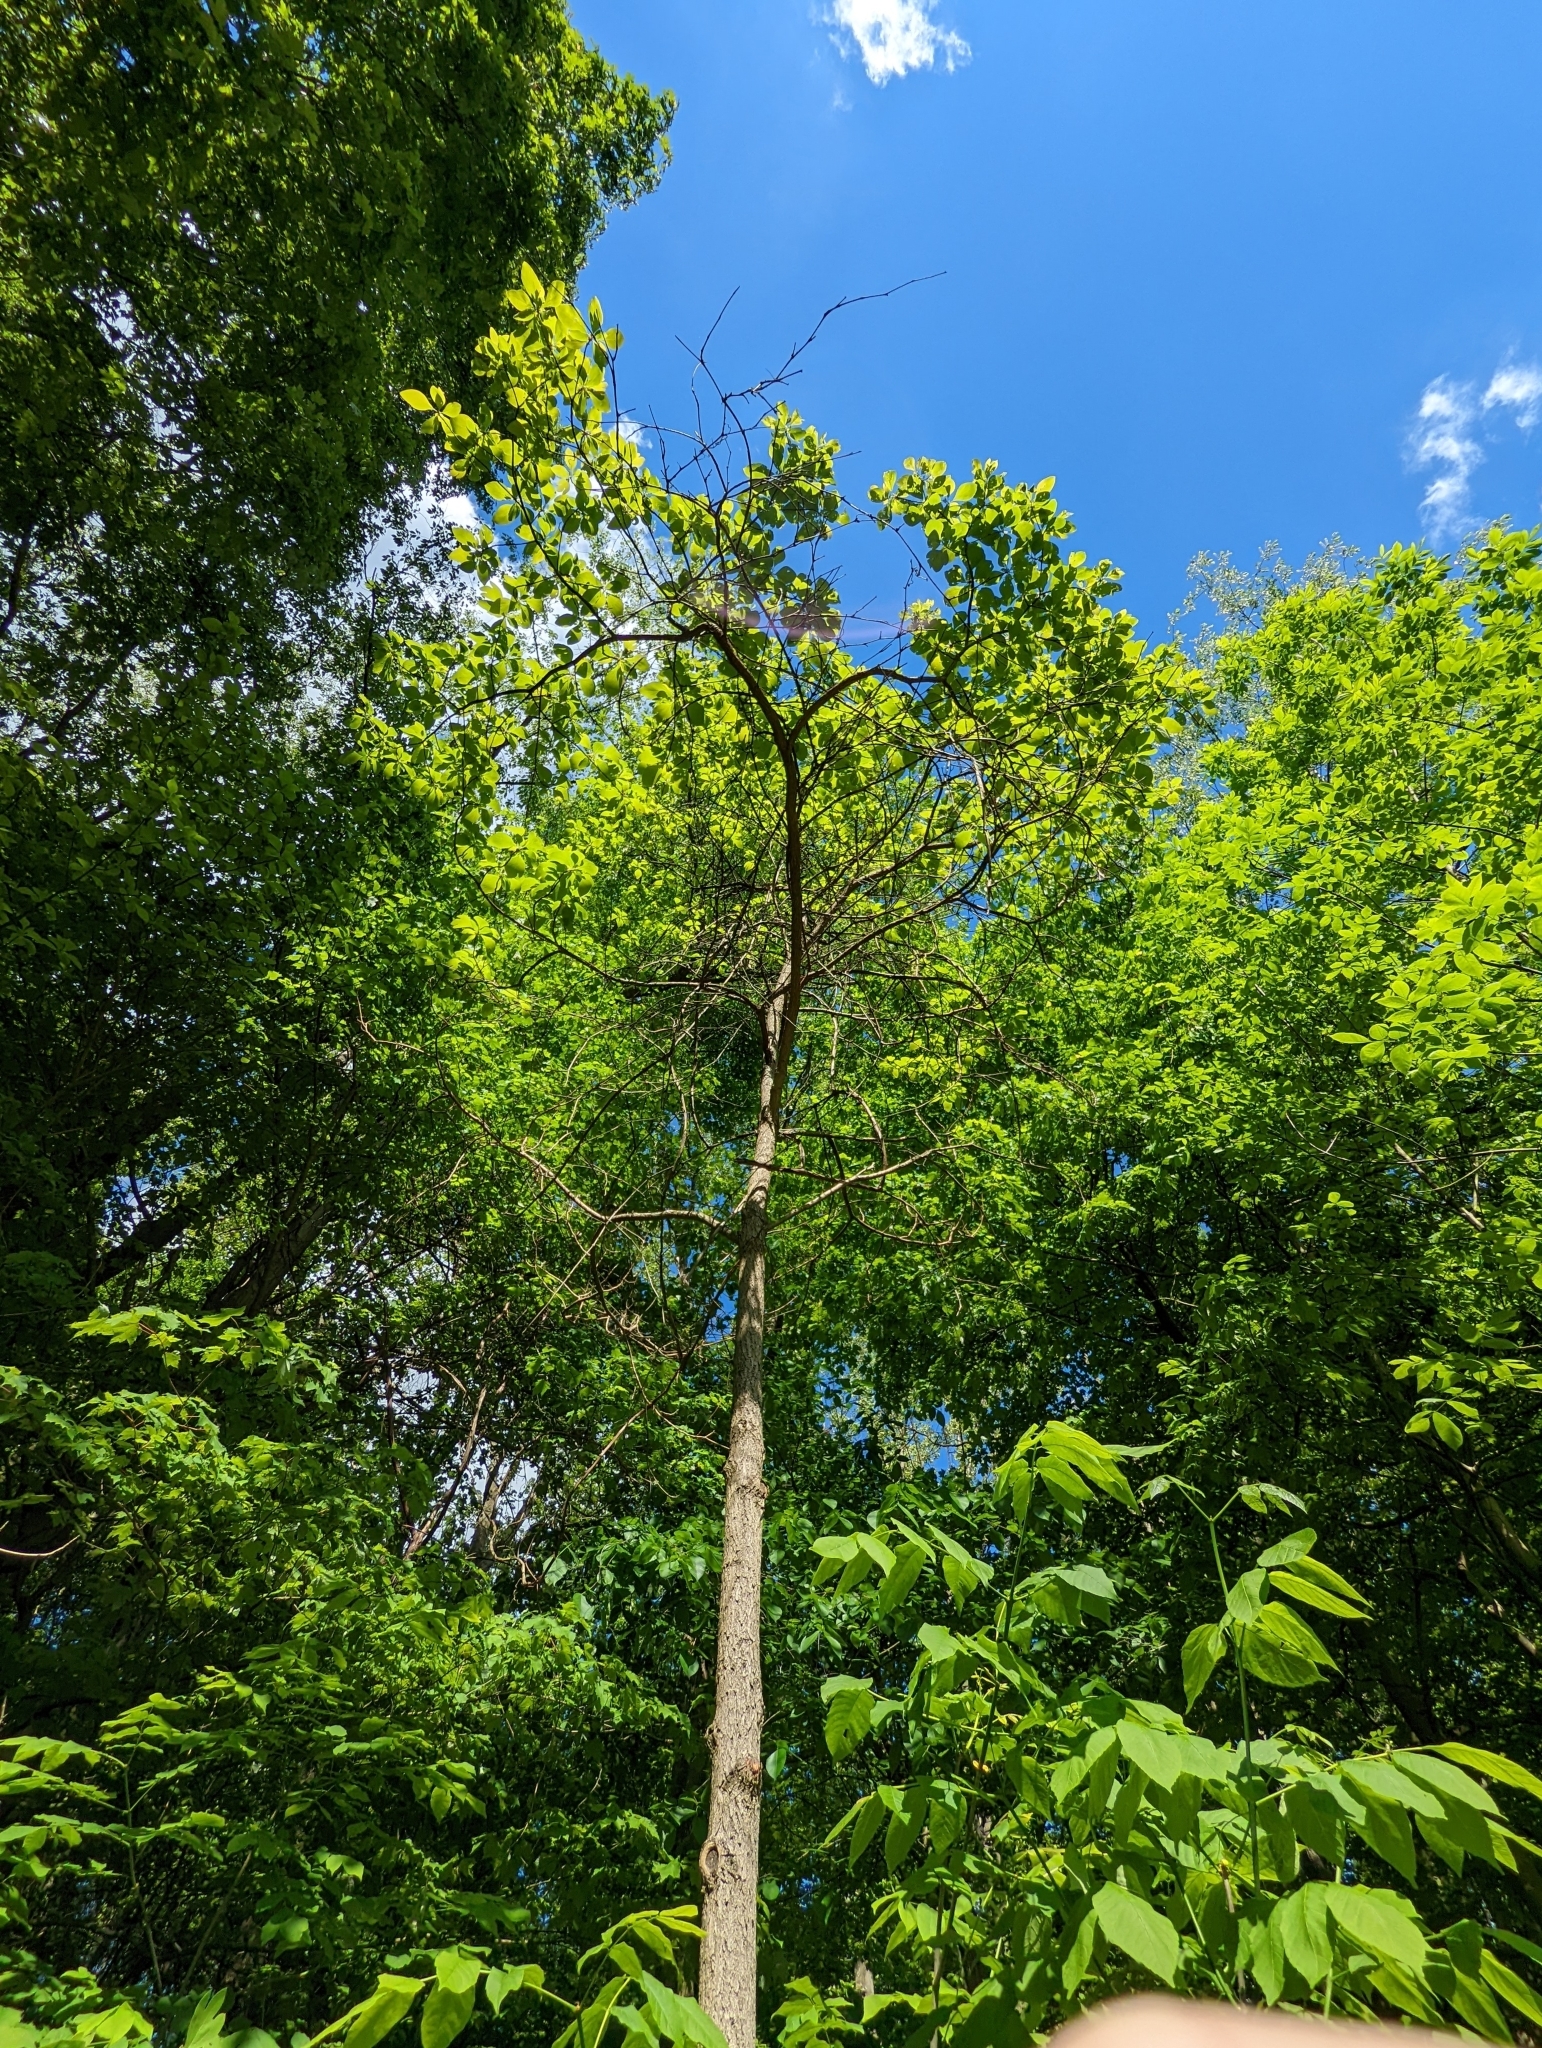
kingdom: Plantae
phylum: Tracheophyta
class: Magnoliopsida
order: Laurales
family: Lauraceae
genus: Sassafras
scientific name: Sassafras albidum
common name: Sassafras
